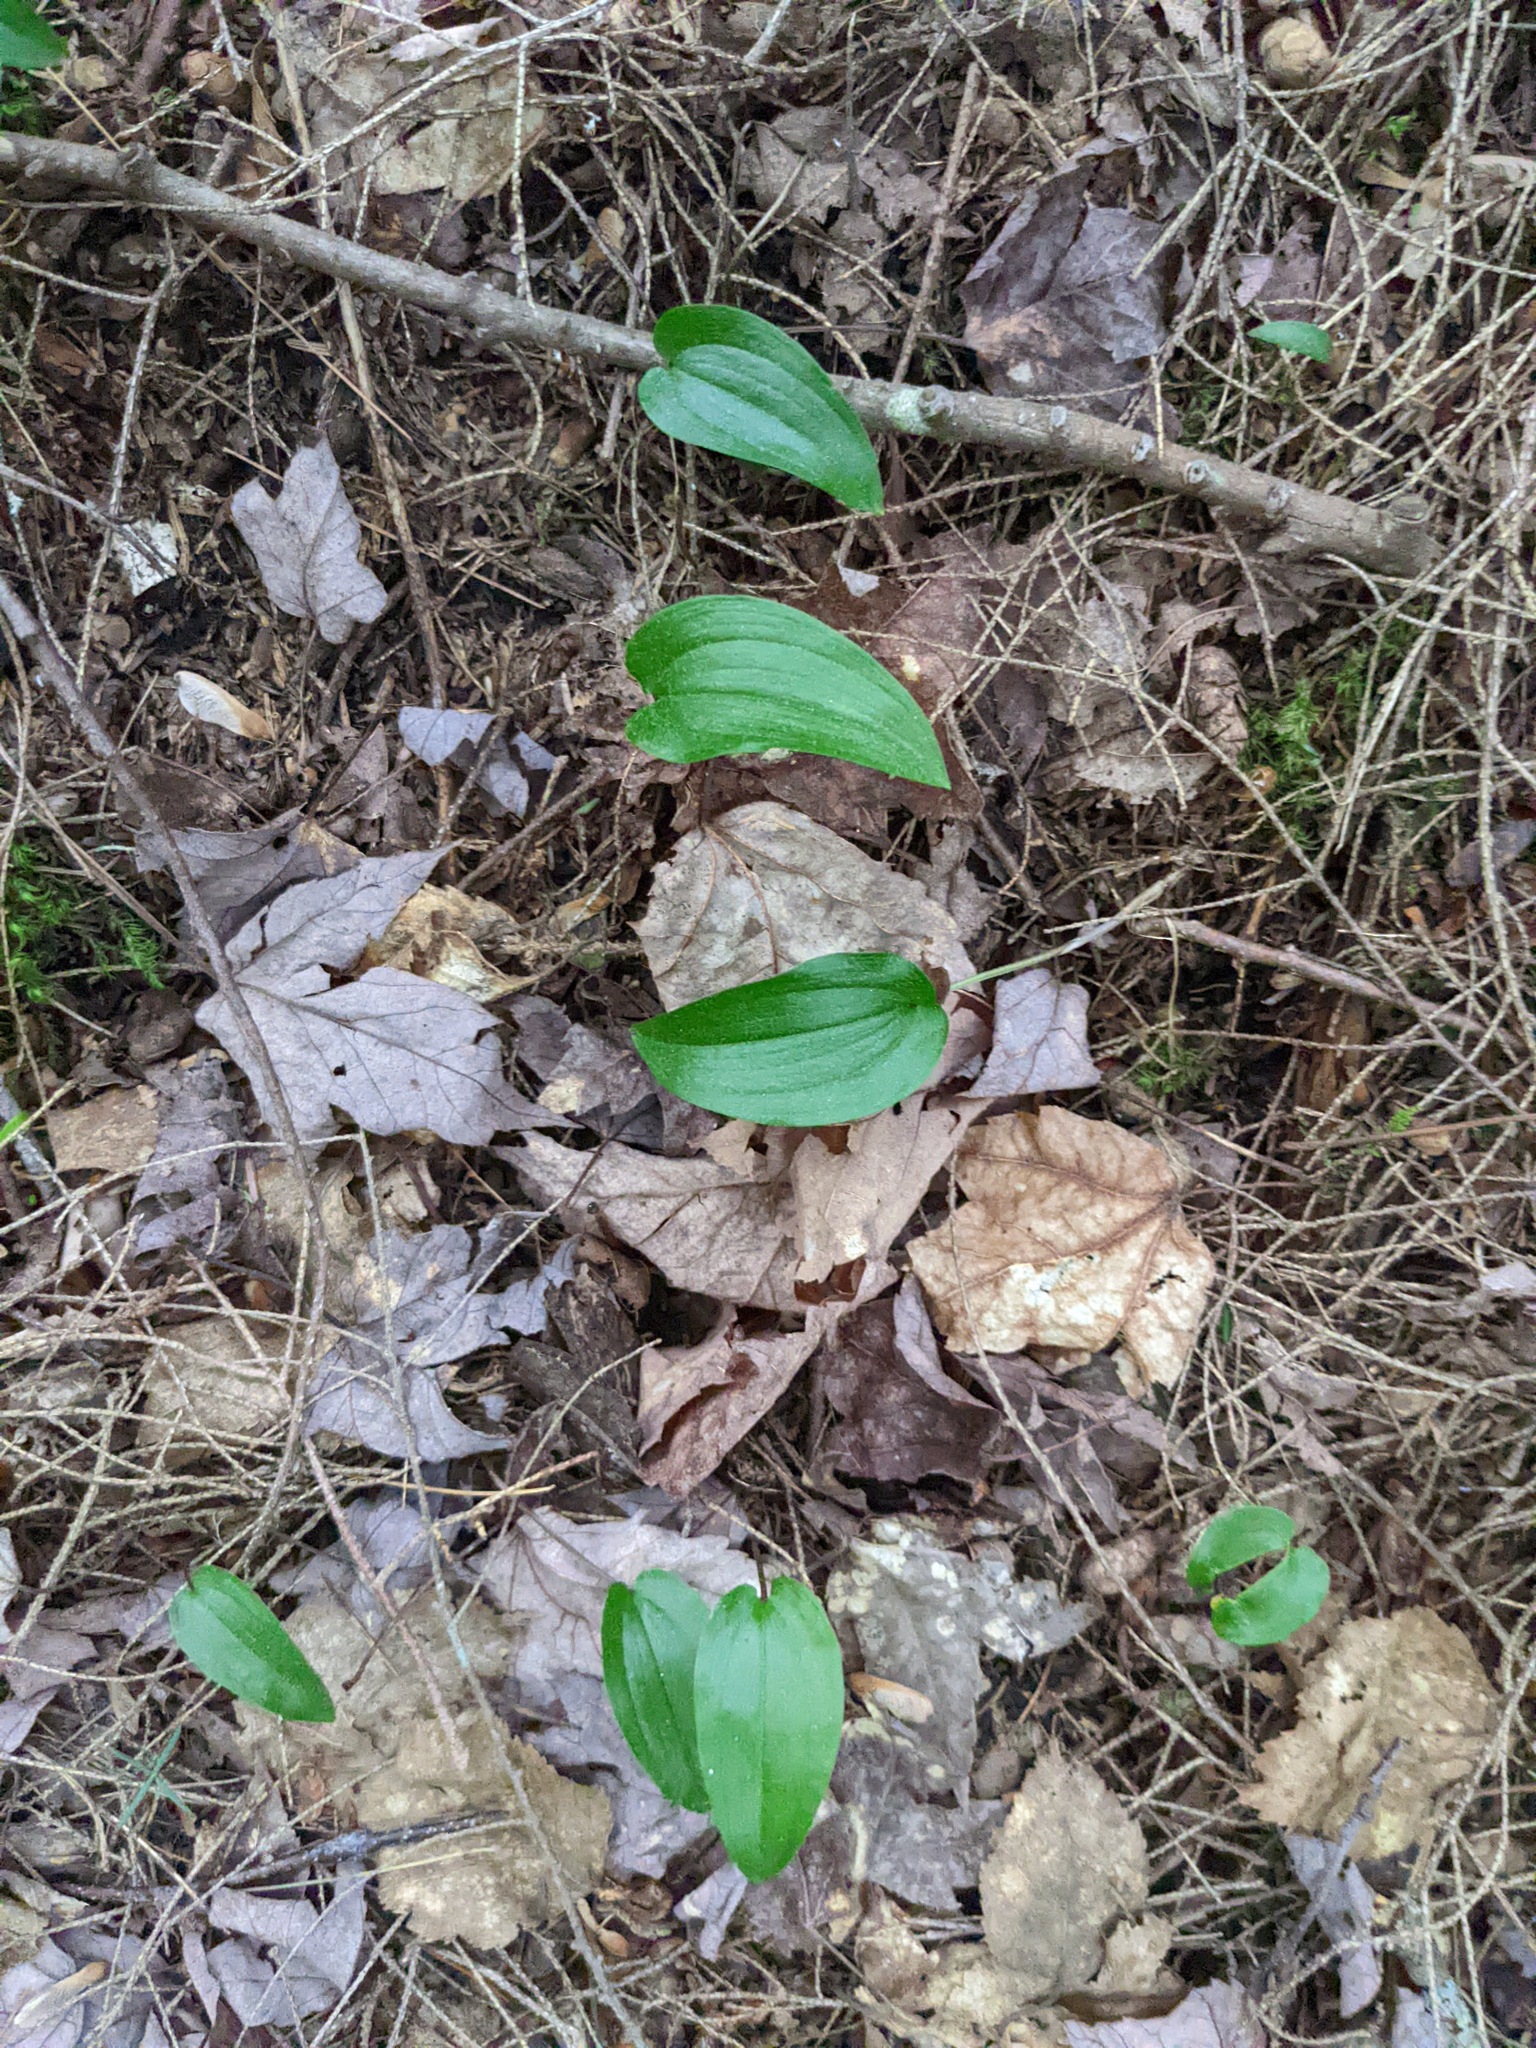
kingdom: Plantae
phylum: Tracheophyta
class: Liliopsida
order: Asparagales
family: Asparagaceae
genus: Maianthemum
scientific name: Maianthemum canadense
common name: False lily-of-the-valley
